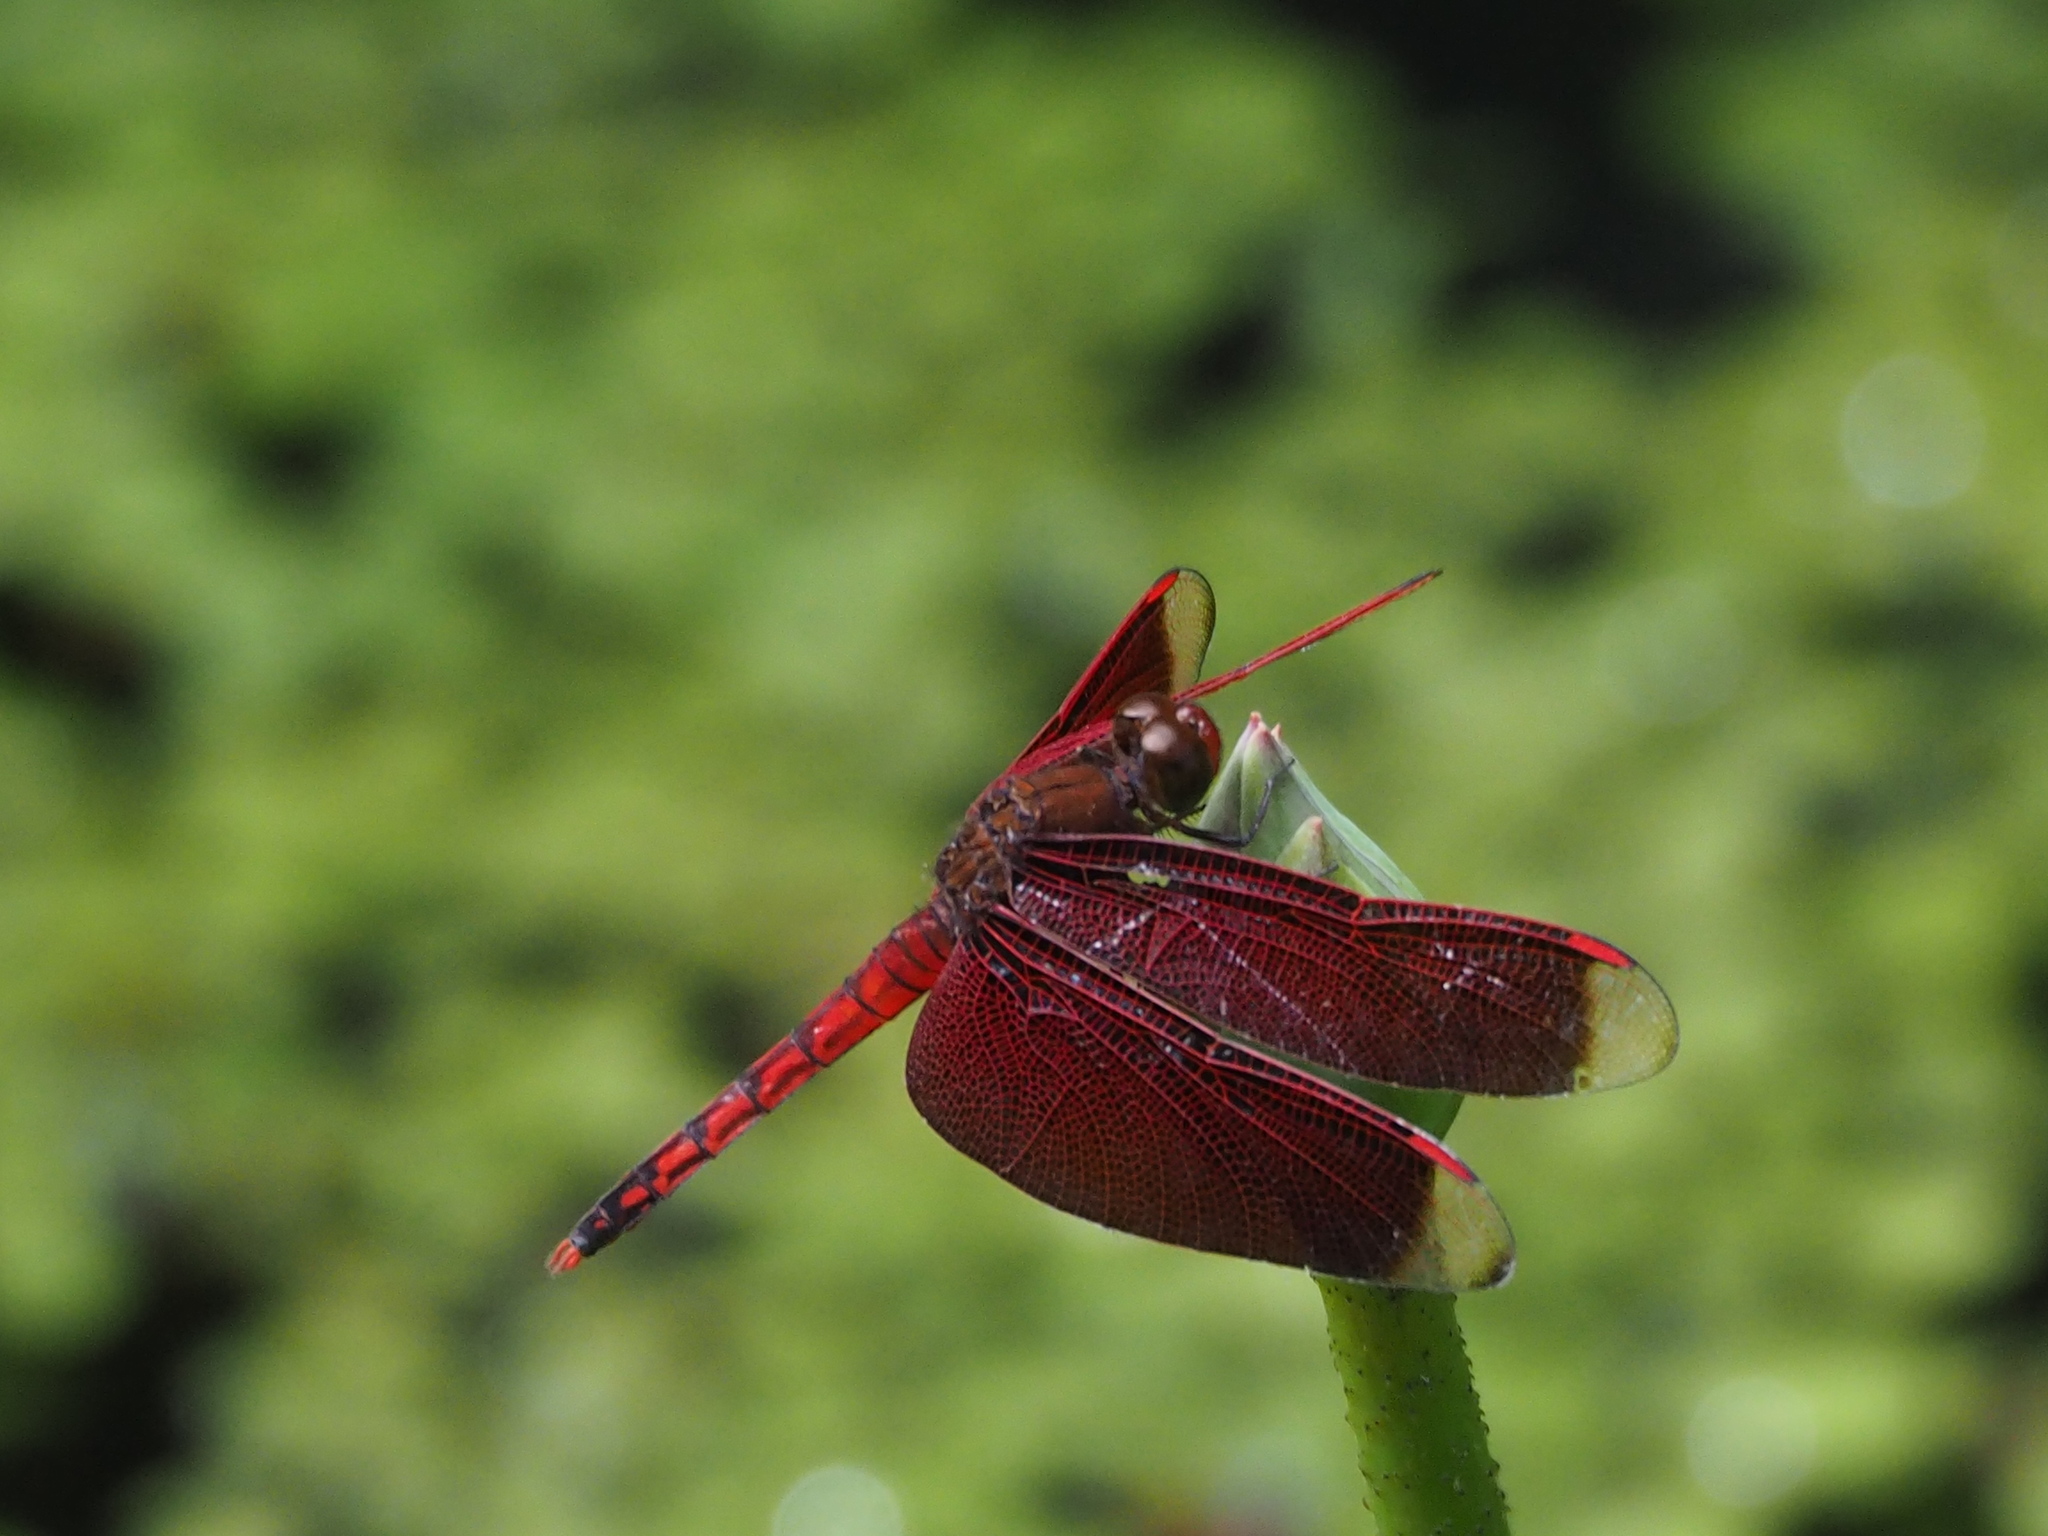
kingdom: Animalia
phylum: Arthropoda
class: Insecta
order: Odonata
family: Libellulidae
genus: Neurothemis
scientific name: Neurothemis taiwanensis
